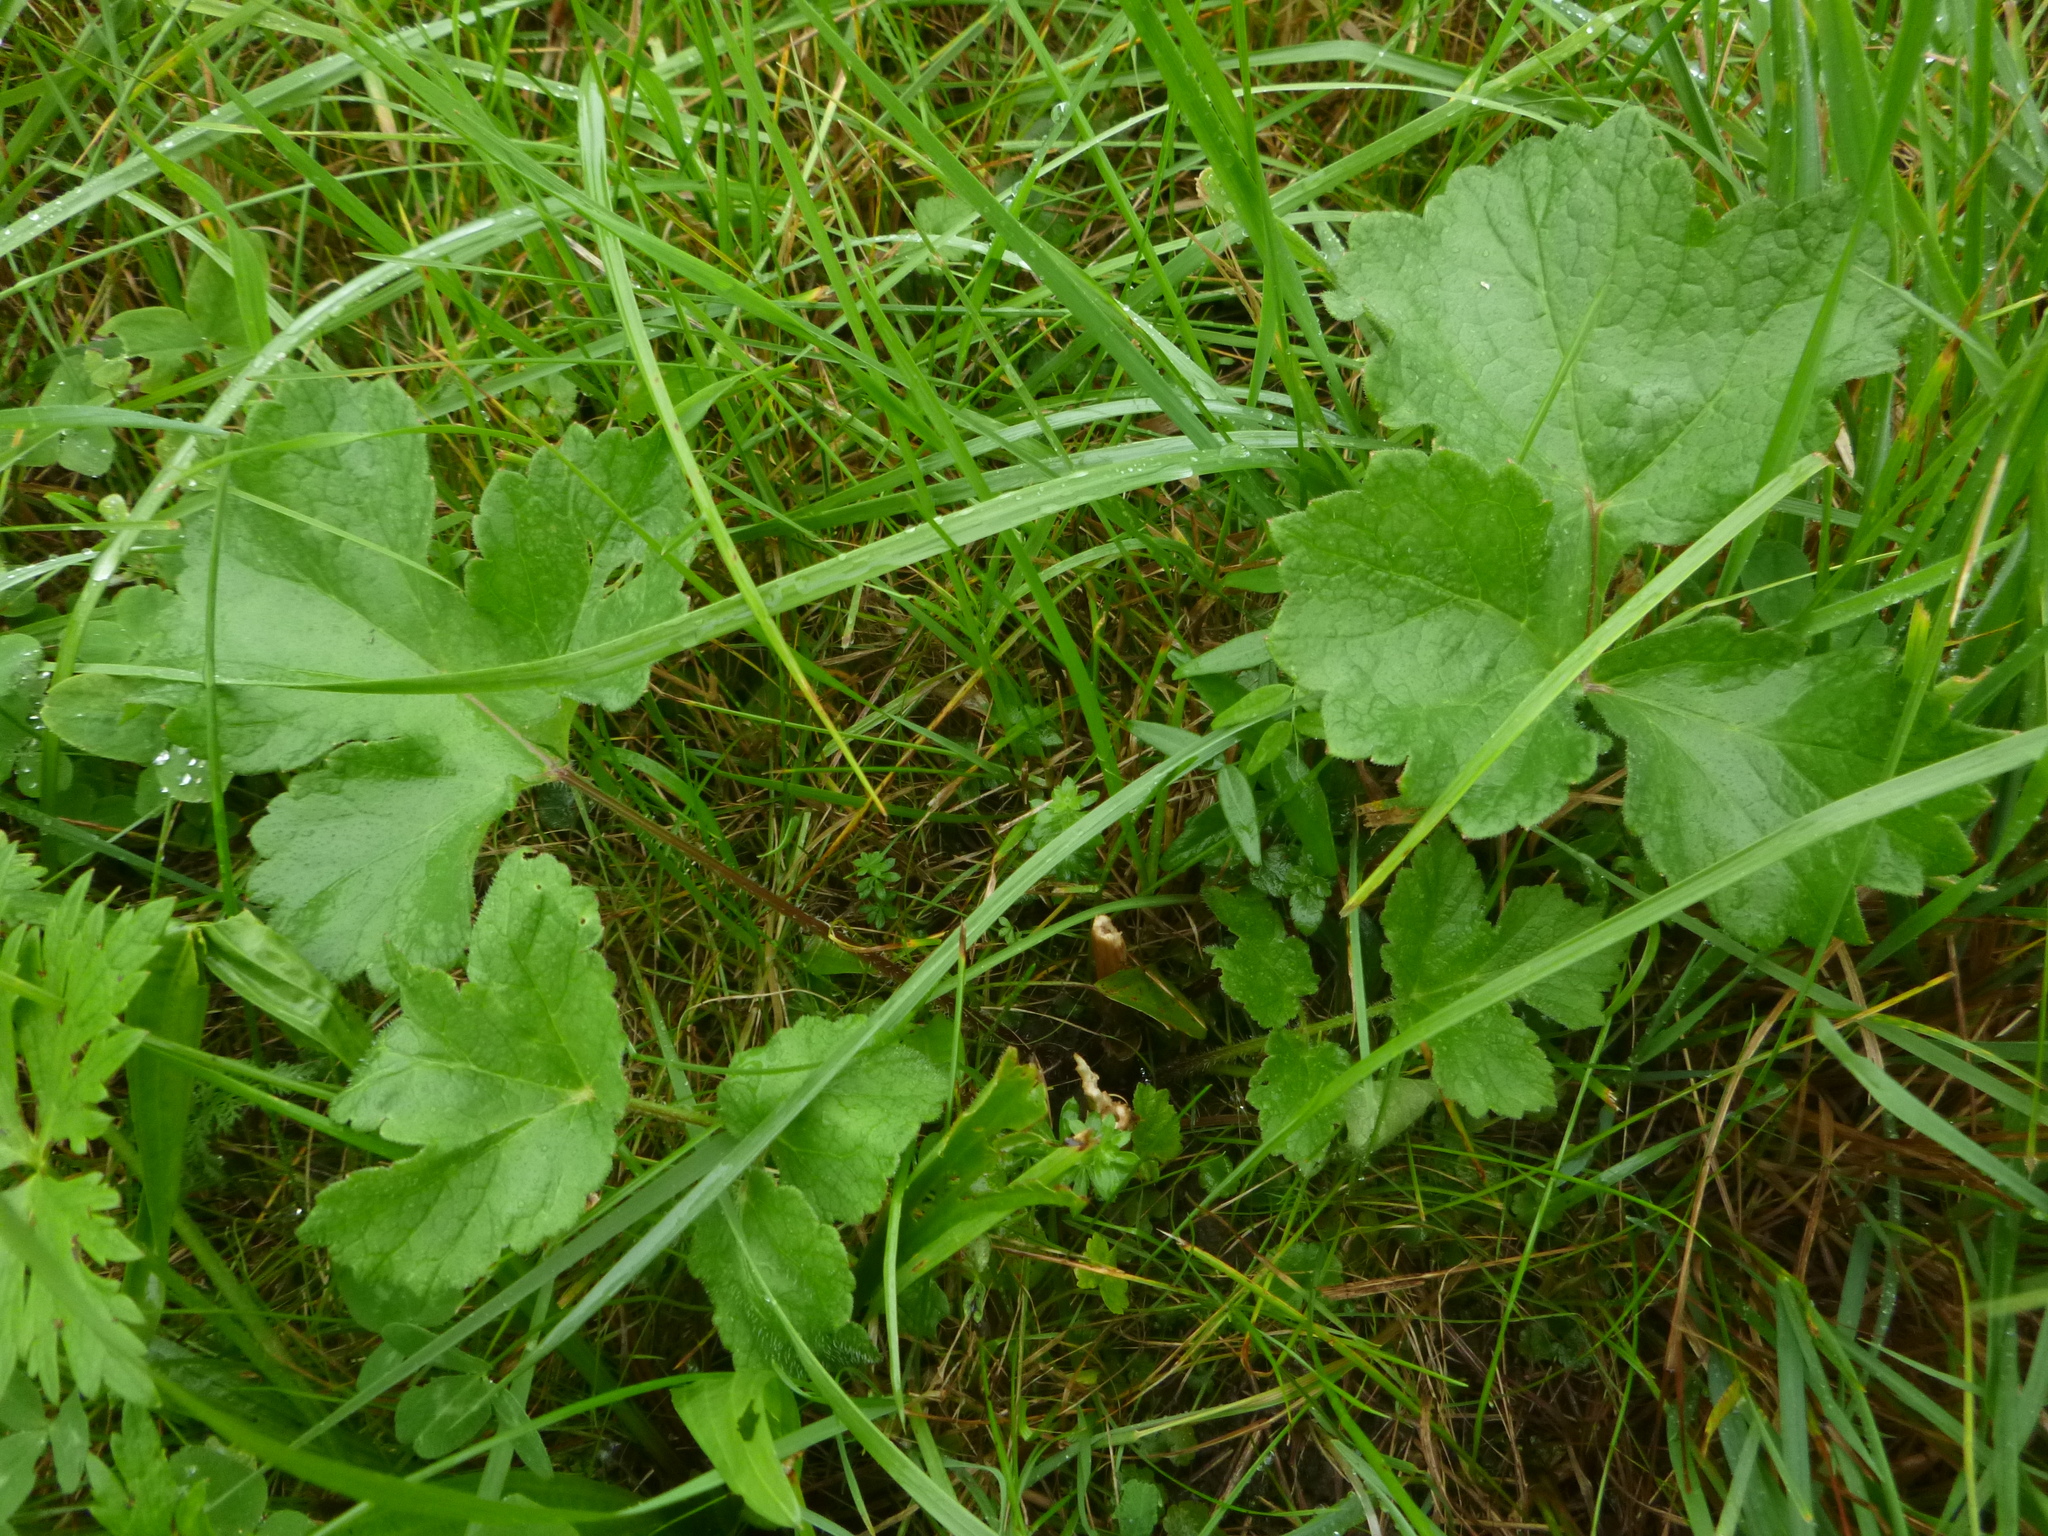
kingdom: Plantae
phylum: Tracheophyta
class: Magnoliopsida
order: Apiales
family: Apiaceae
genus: Heracleum
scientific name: Heracleum sphondylium
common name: Hogweed
